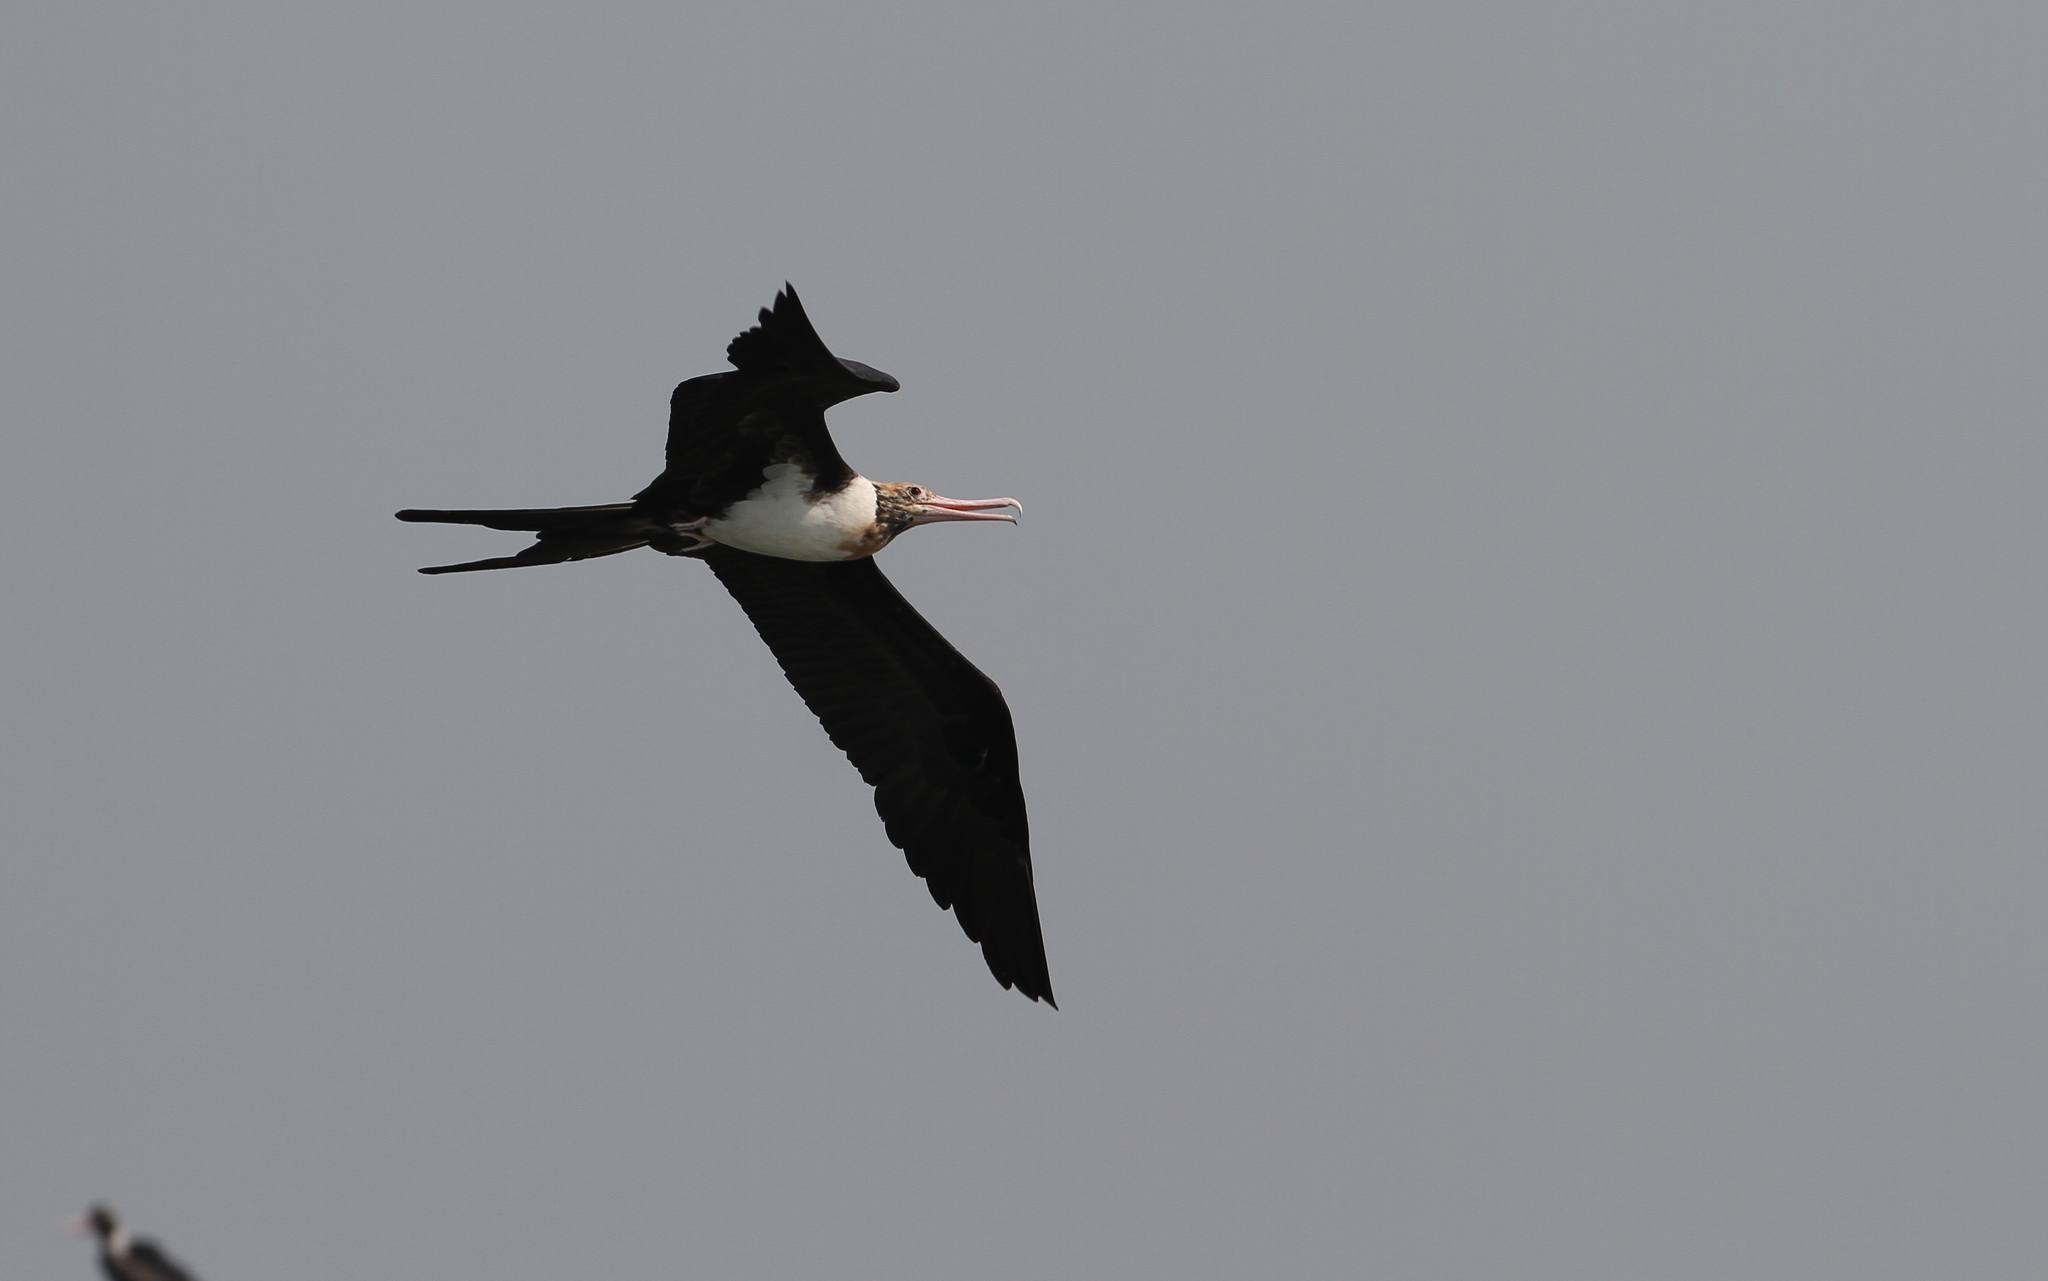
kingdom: Animalia
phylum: Chordata
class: Aves
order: Suliformes
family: Fregatidae
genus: Fregata
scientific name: Fregata andrewsi
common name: Christmas frigatebird
